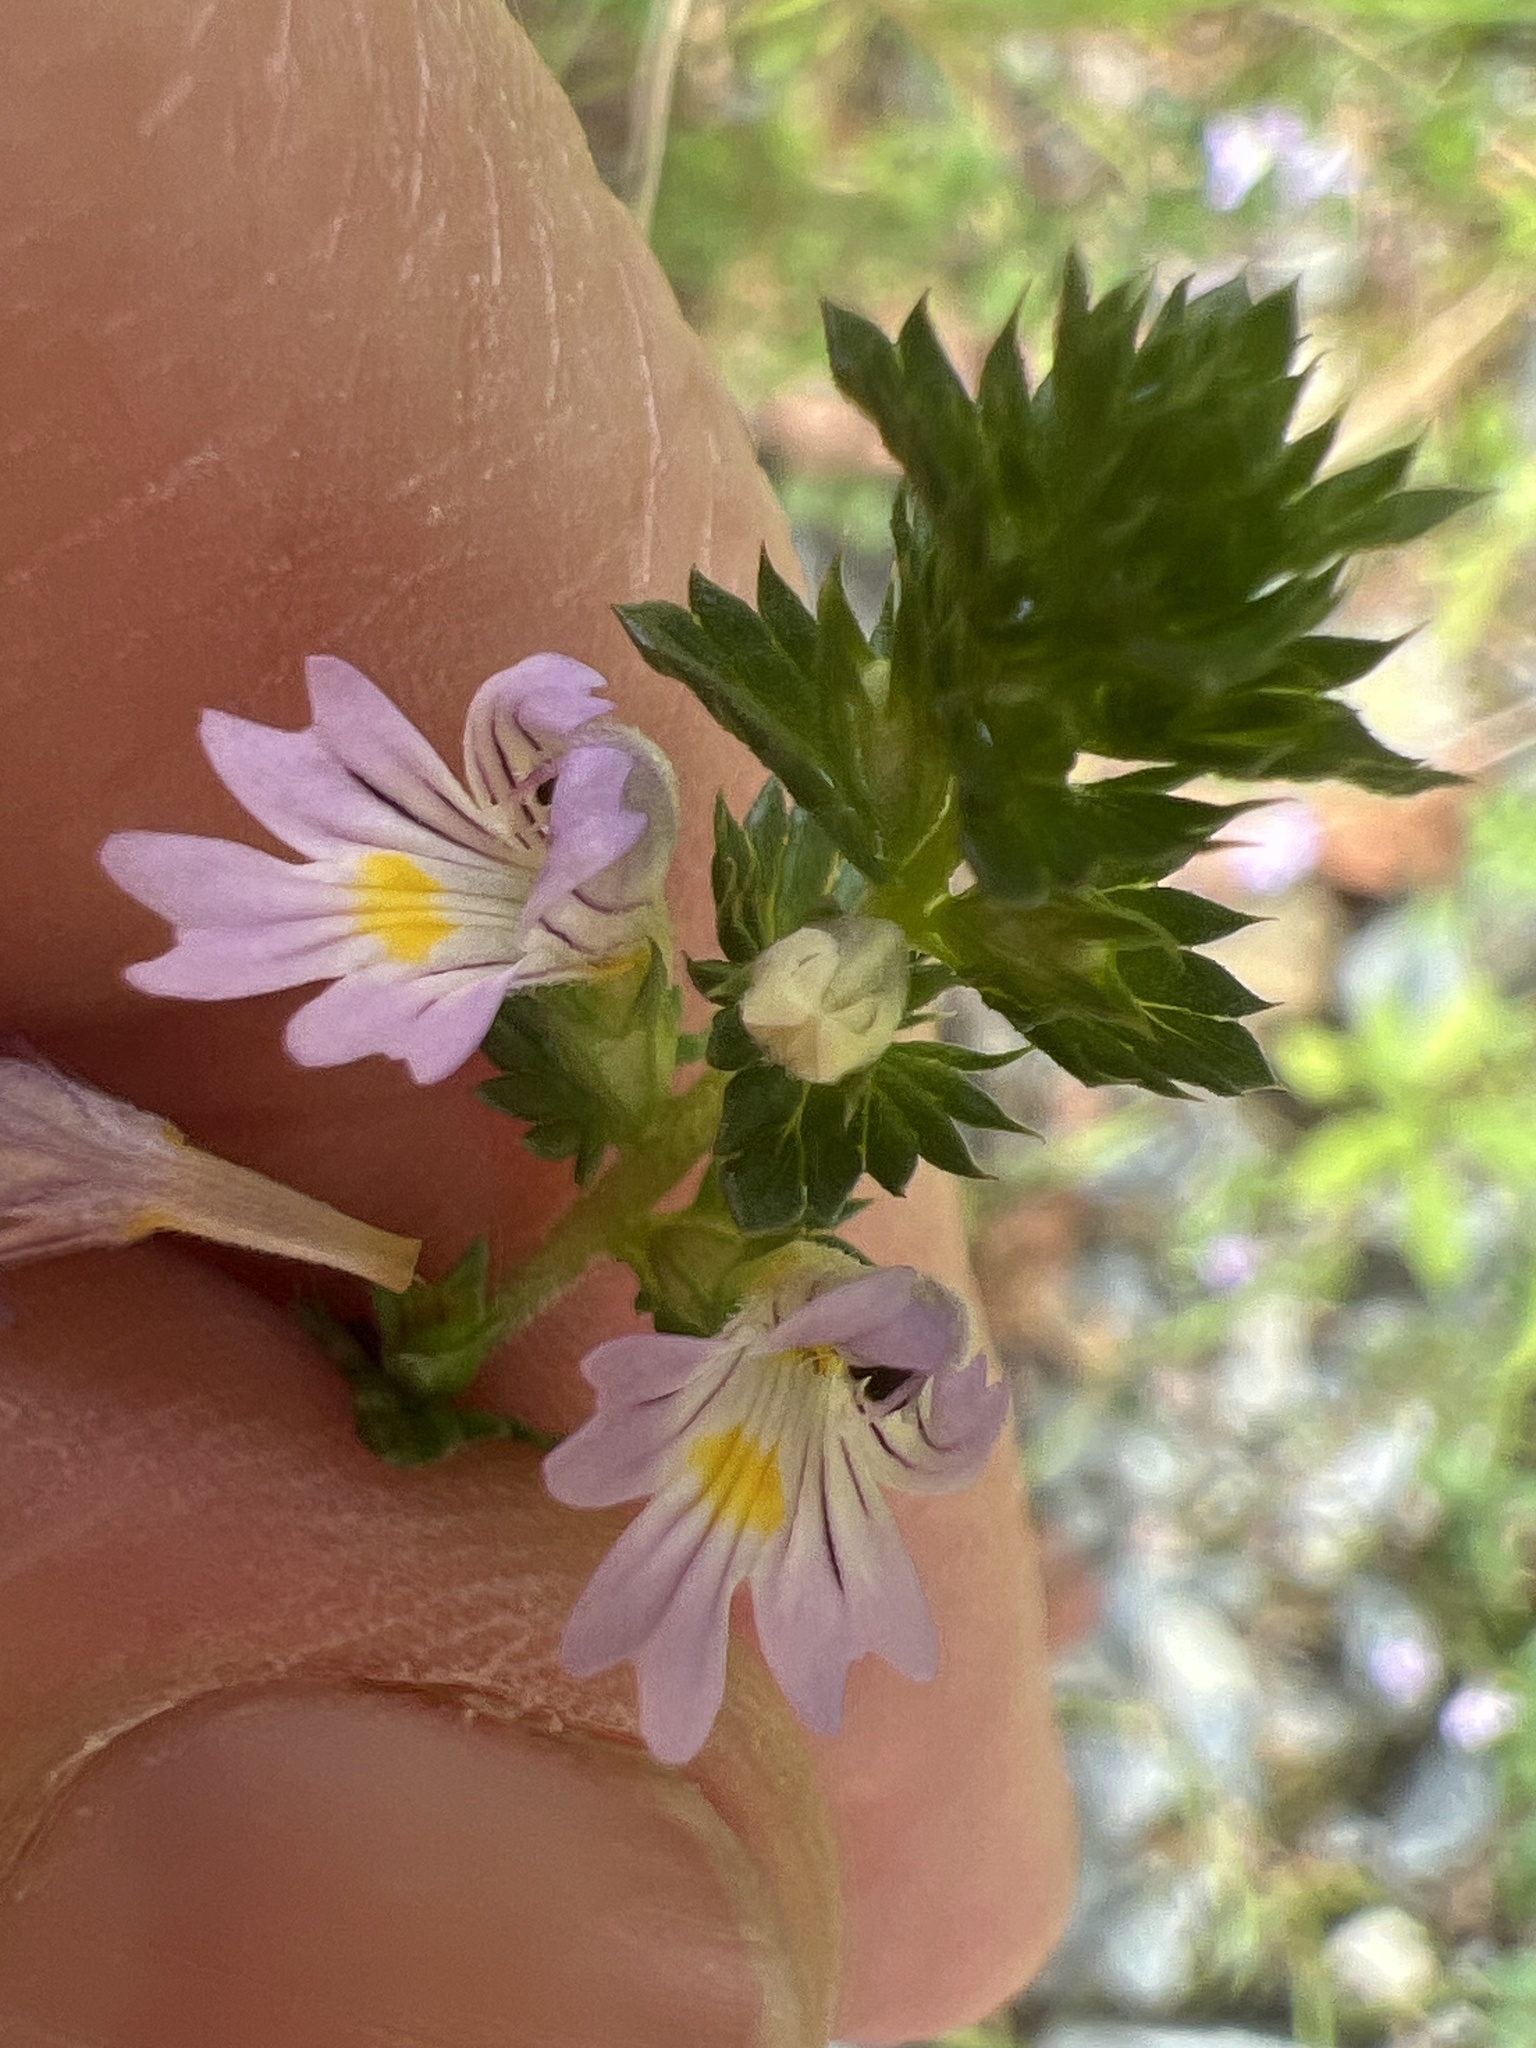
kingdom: Plantae
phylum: Tracheophyta
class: Magnoliopsida
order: Lamiales
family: Orobanchaceae
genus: Euphrasia
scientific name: Euphrasia nemorosa
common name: Common eyebright
